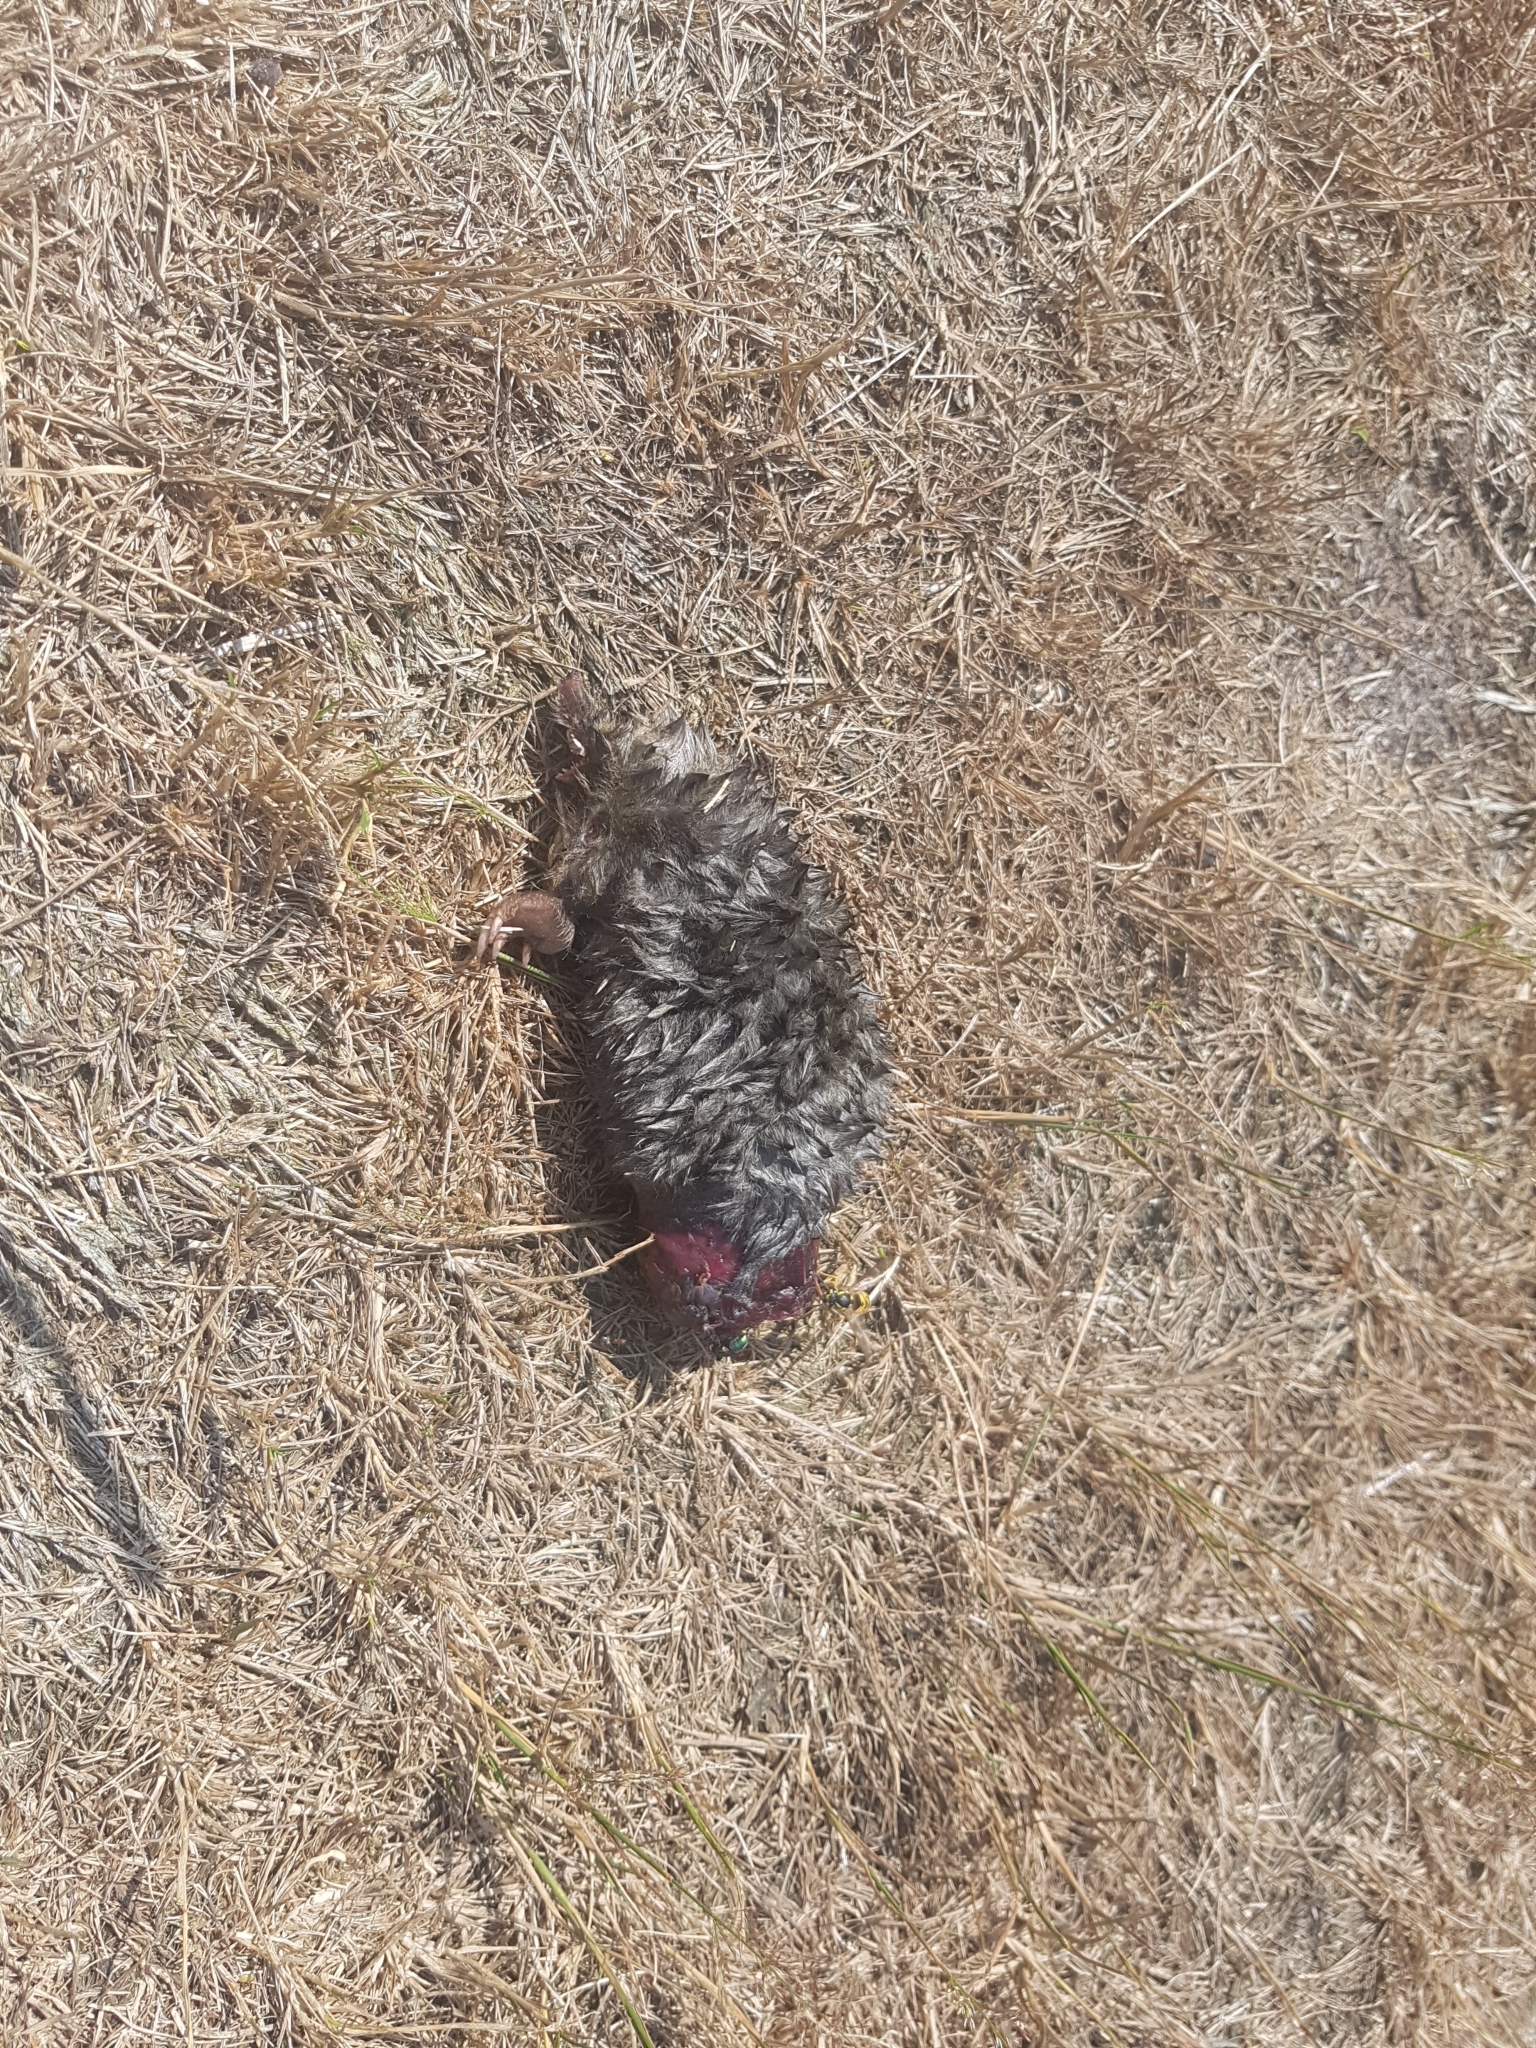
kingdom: Animalia
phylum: Chordata
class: Mammalia
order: Soricomorpha
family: Talpidae
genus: Talpa
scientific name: Talpa europaea
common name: European mole
